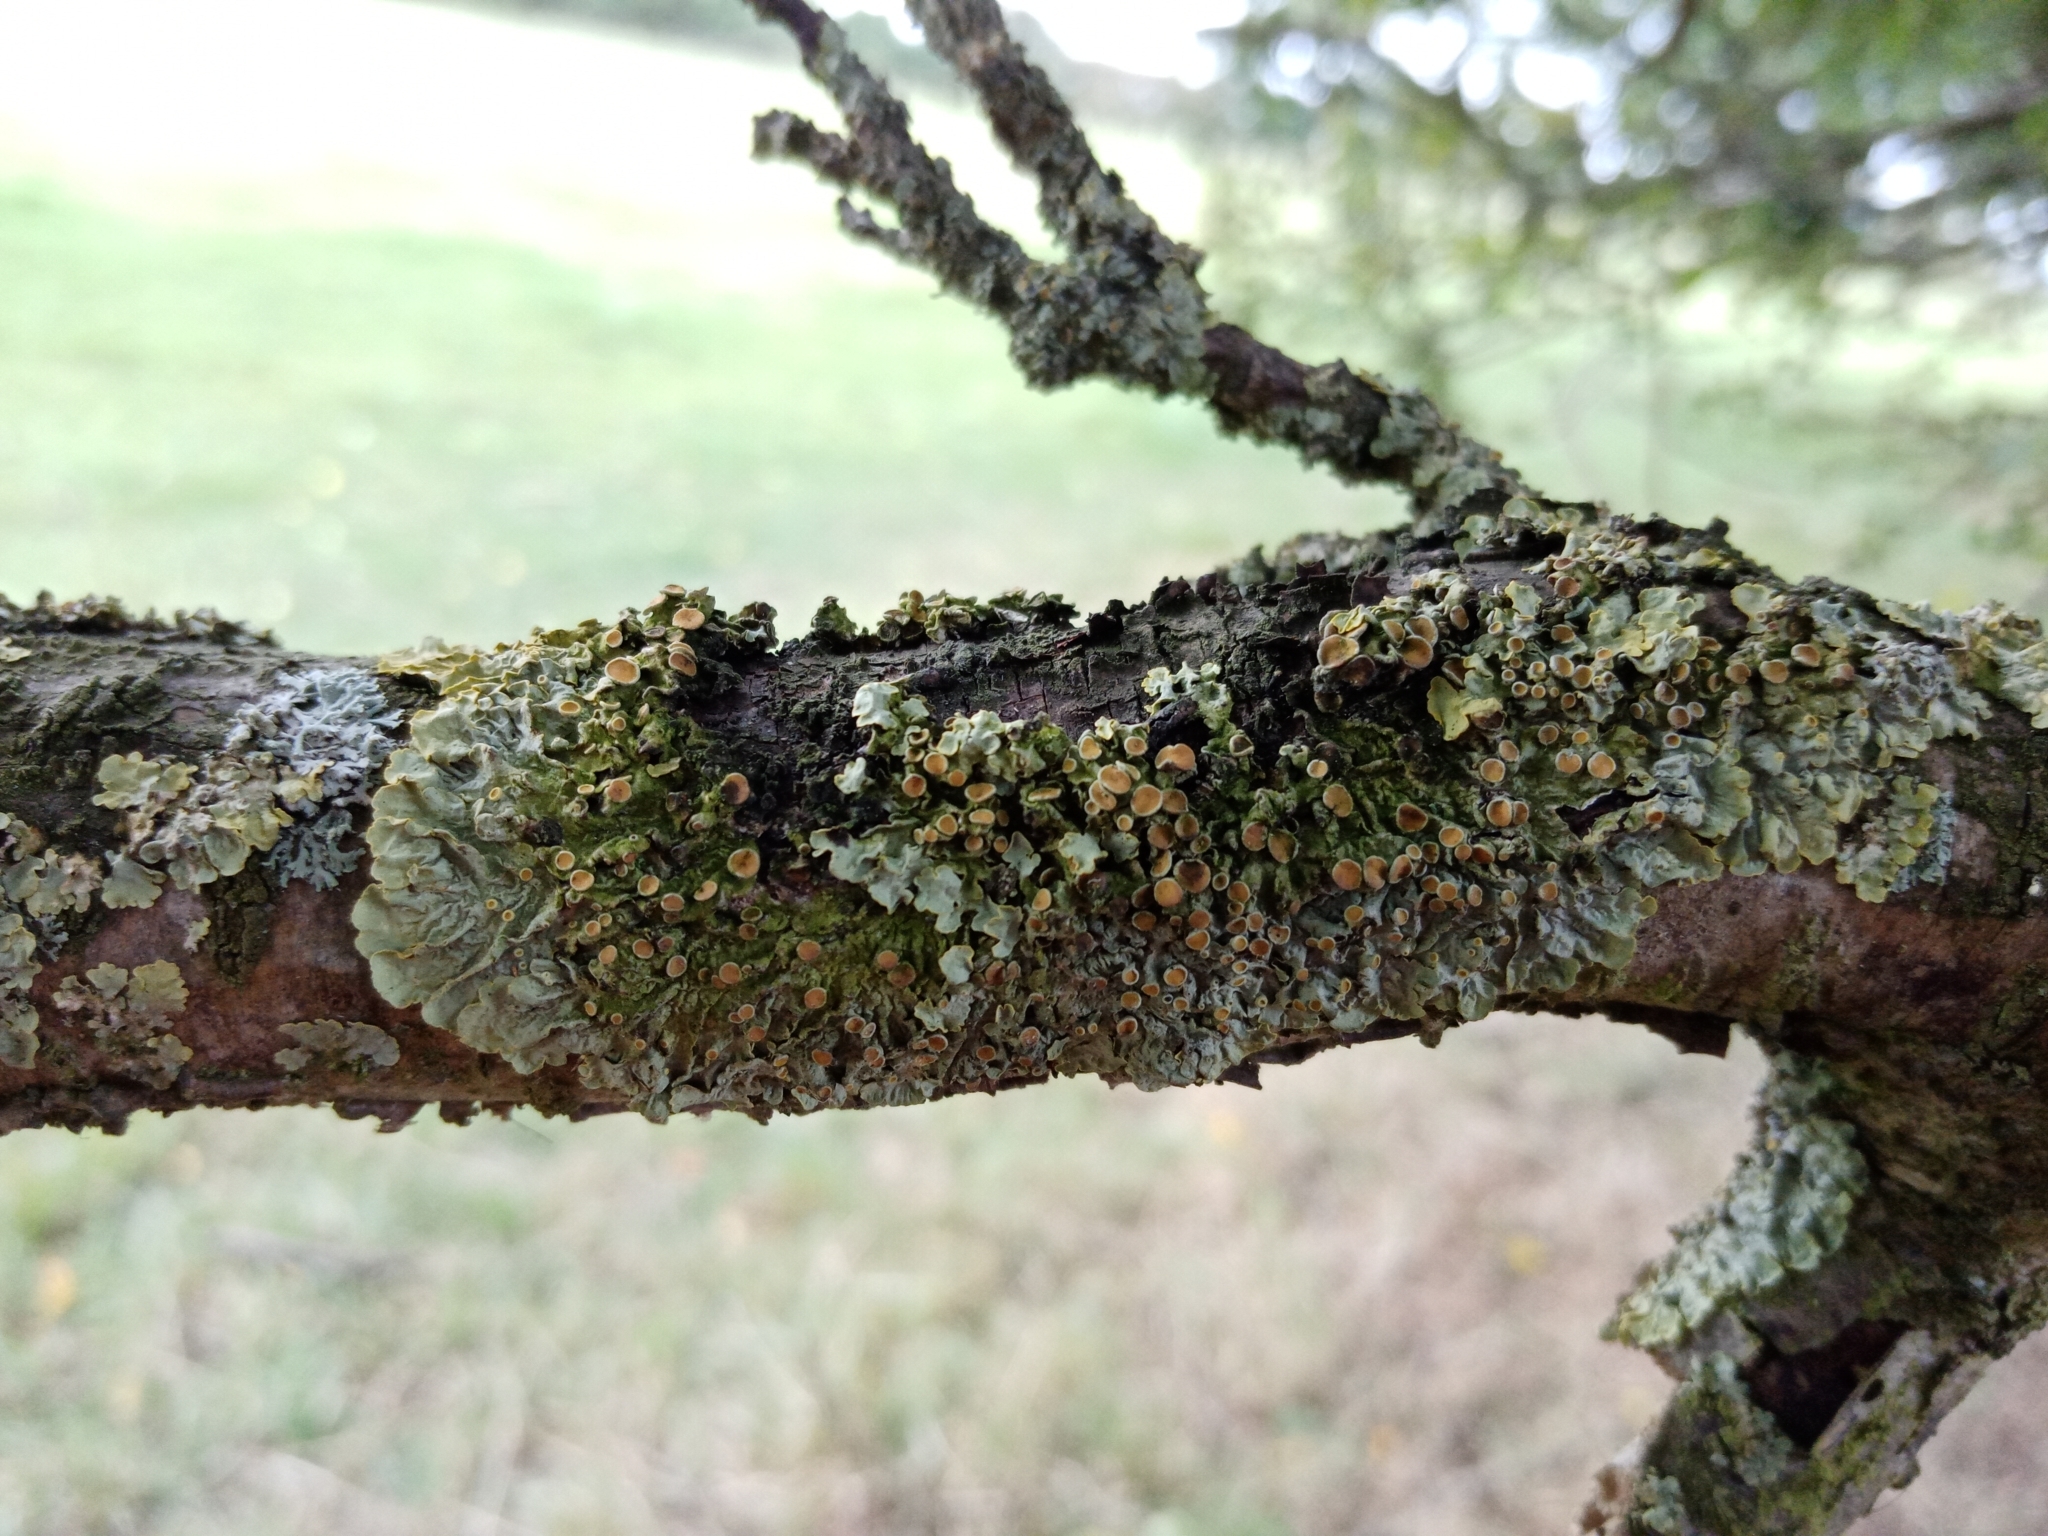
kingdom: Fungi
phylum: Ascomycota
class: Lecanoromycetes
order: Teloschistales
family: Teloschistaceae
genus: Xanthoria
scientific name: Xanthoria parietina
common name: Common orange lichen
